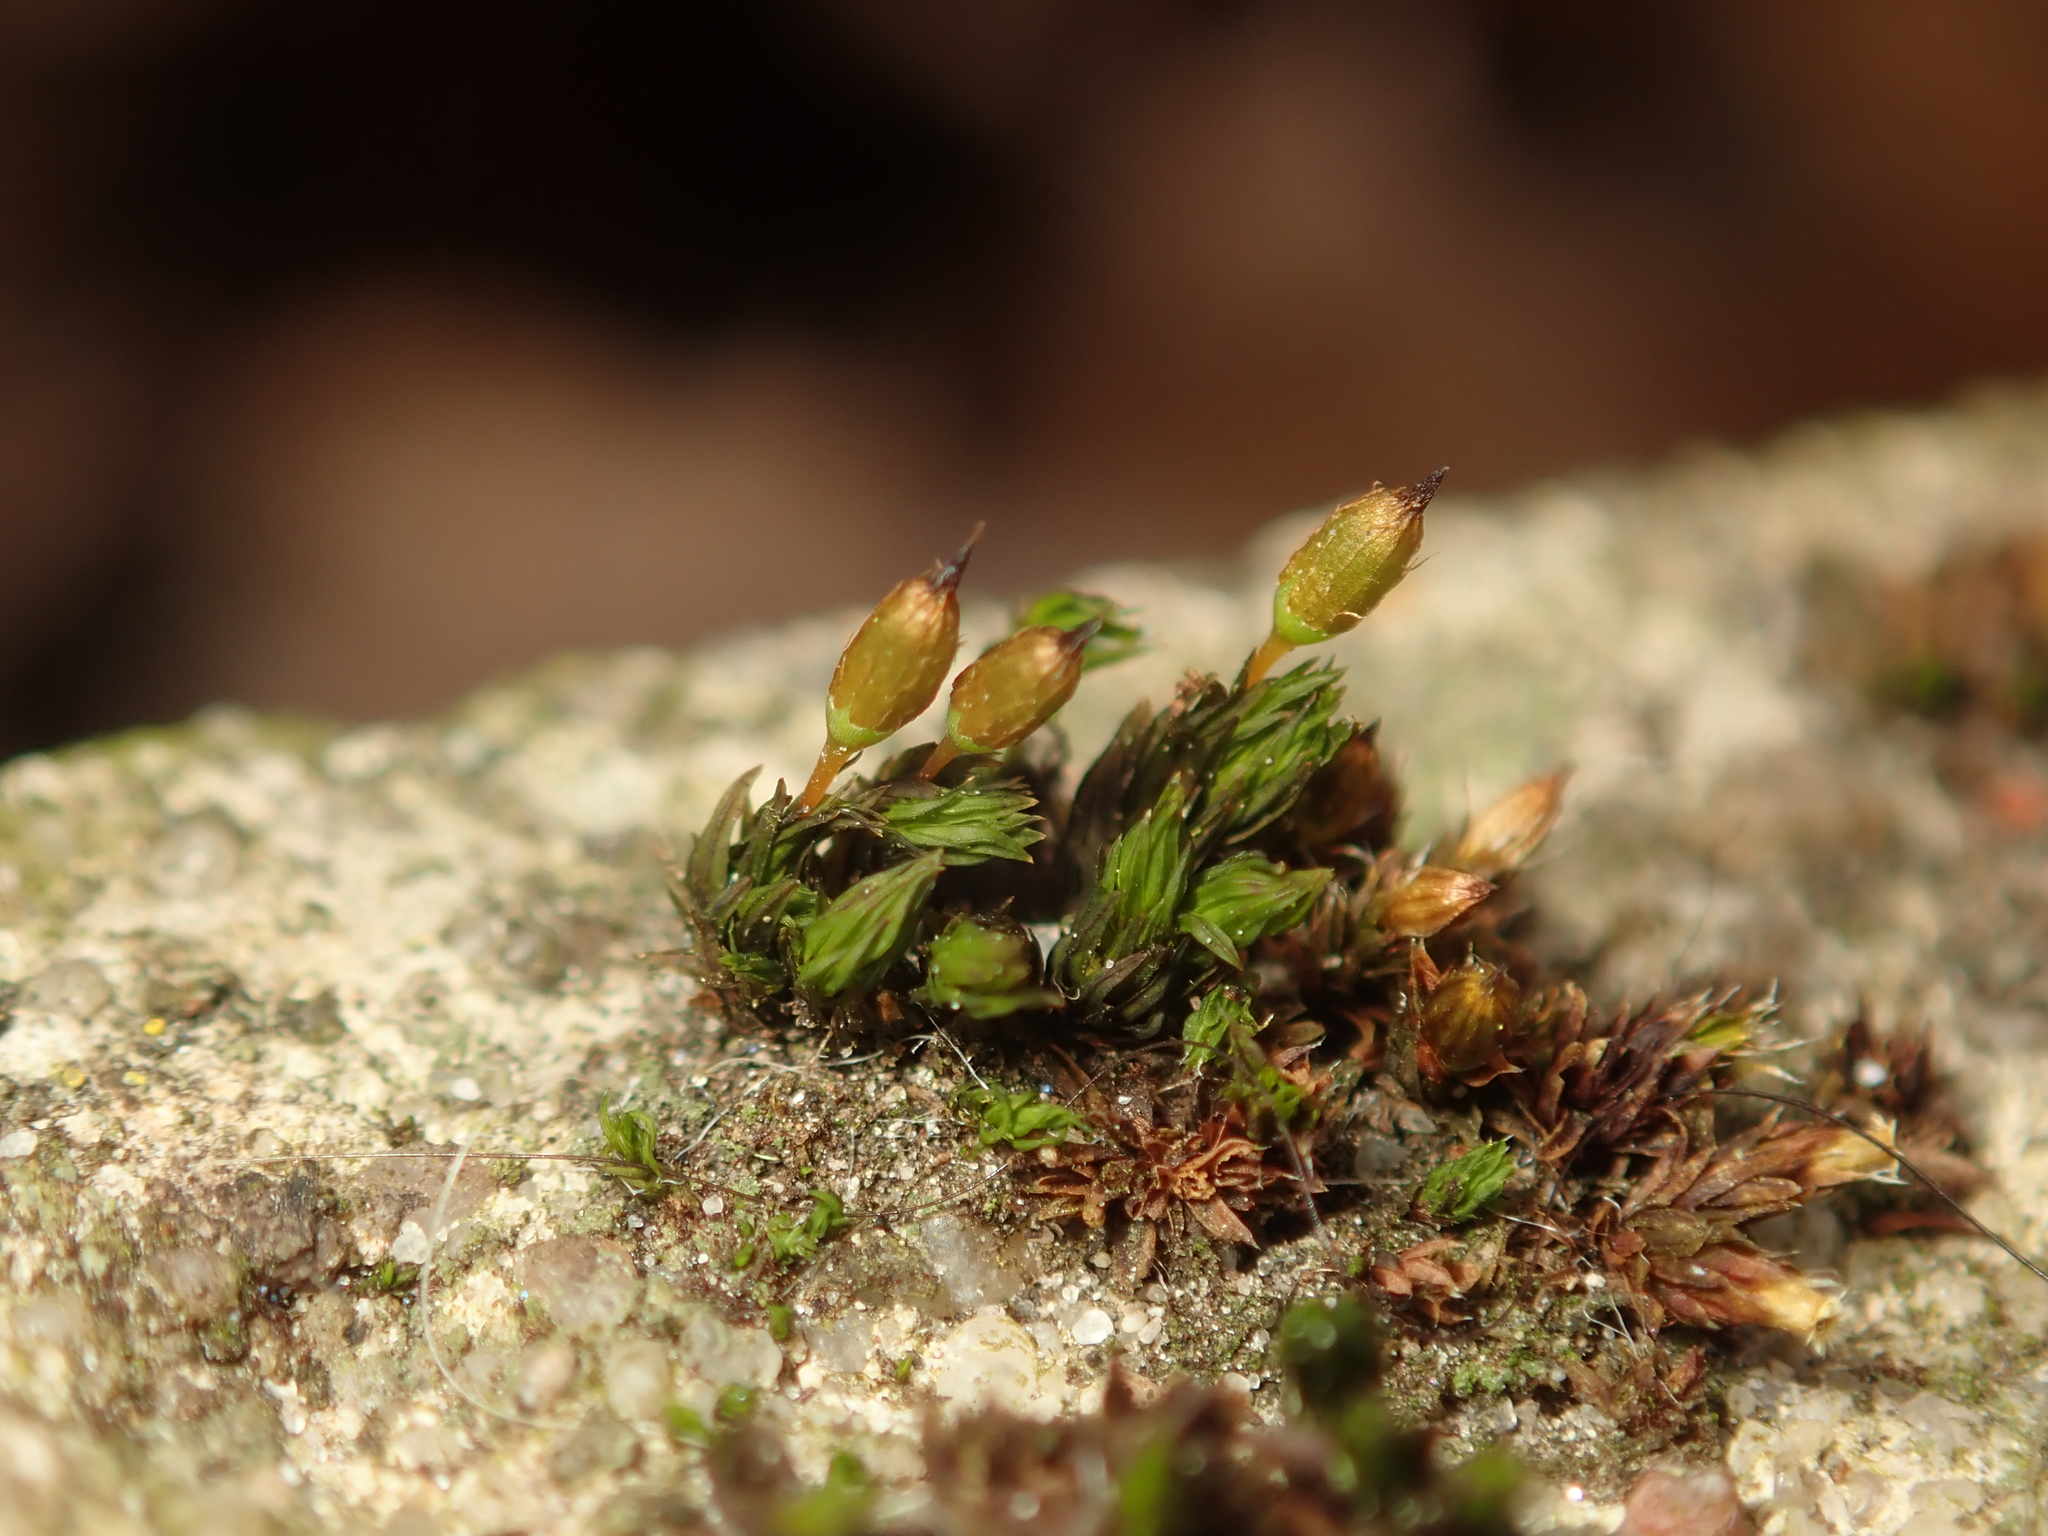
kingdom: Plantae
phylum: Bryophyta
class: Bryopsida
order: Orthotrichales
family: Orthotrichaceae
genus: Orthotrichum
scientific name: Orthotrichum anomalum
